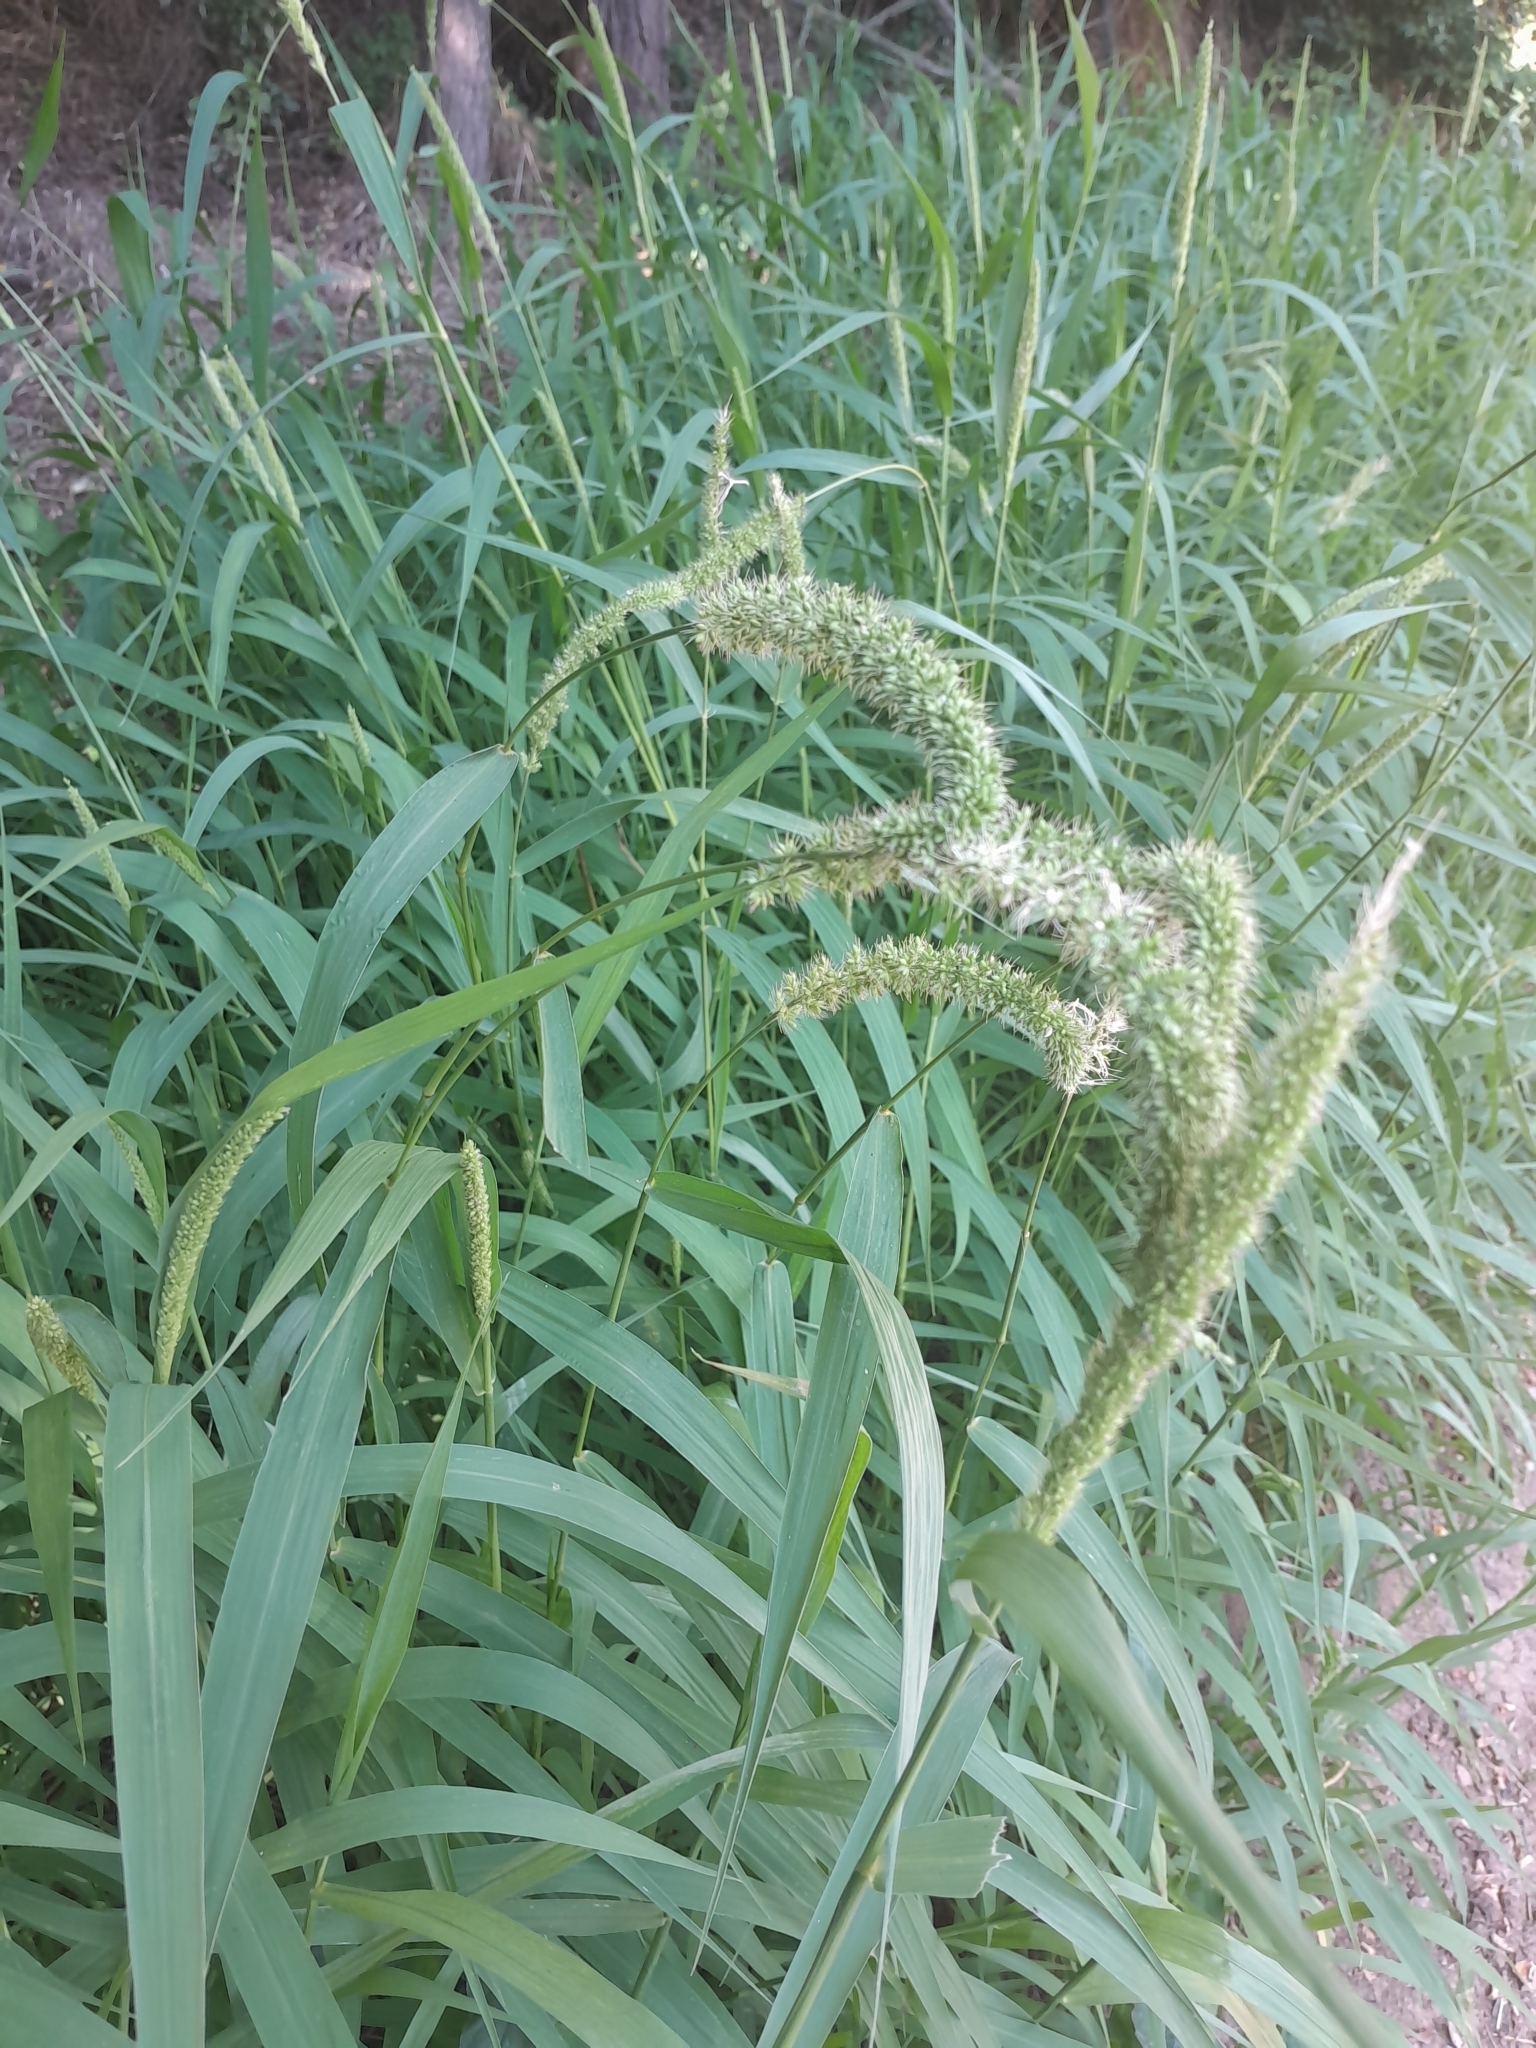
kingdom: Plantae
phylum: Tracheophyta
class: Liliopsida
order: Poales
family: Poaceae
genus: Setaria
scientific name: Setaria verticillata
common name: Hooked bristlegrass
